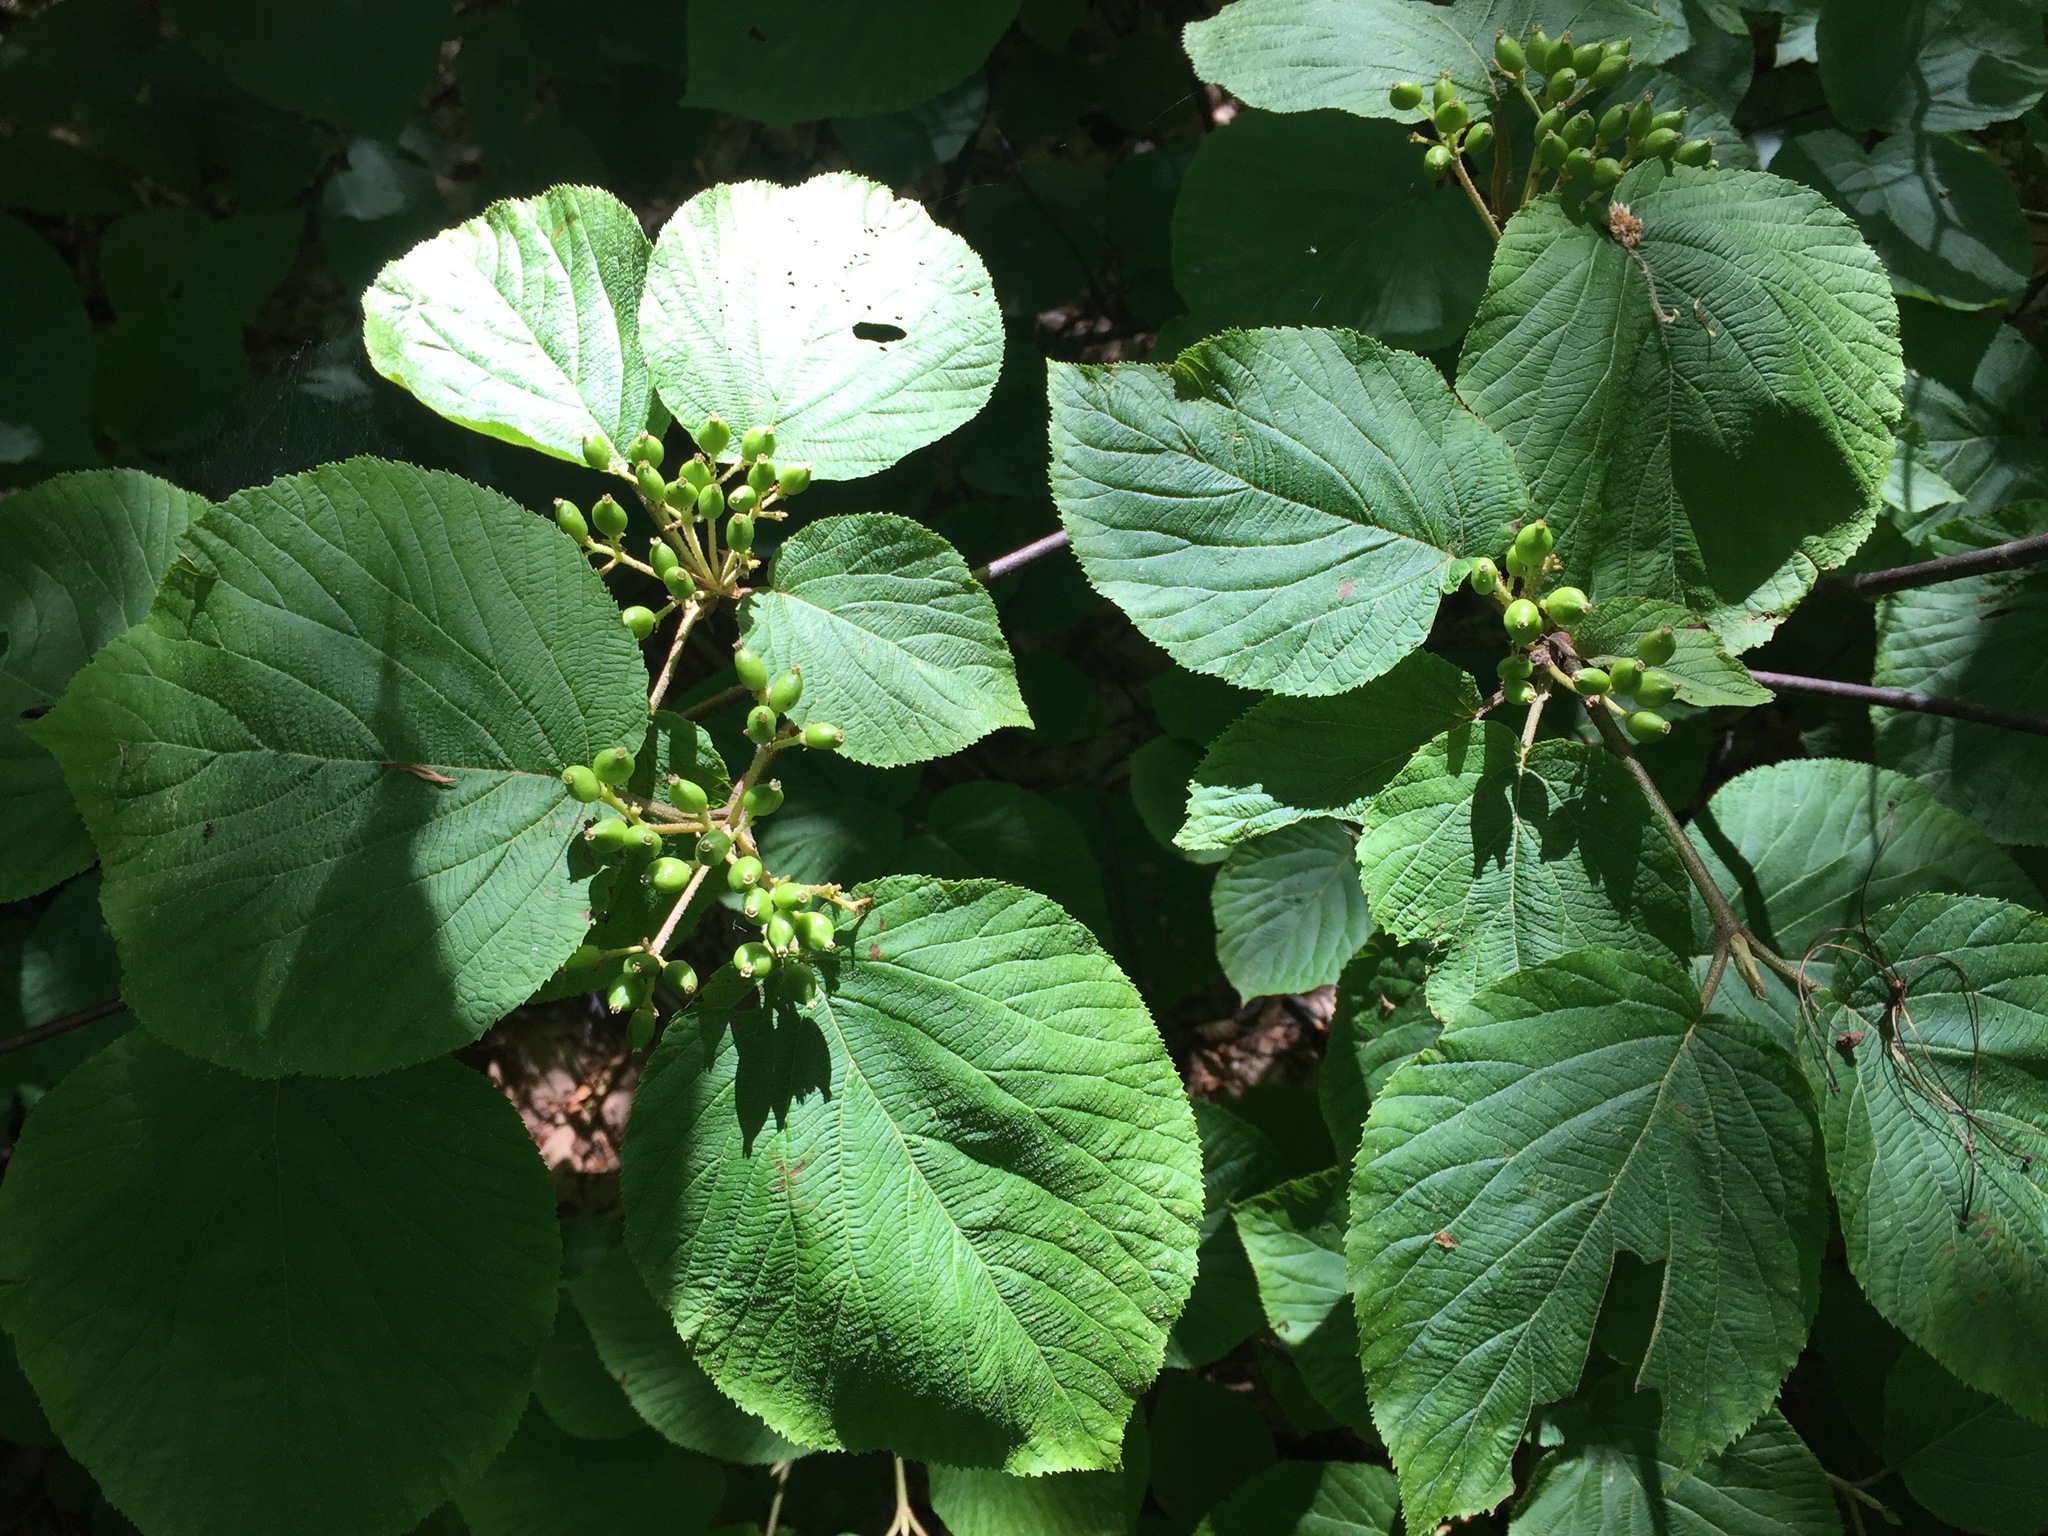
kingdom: Plantae
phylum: Tracheophyta
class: Magnoliopsida
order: Dipsacales
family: Viburnaceae
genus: Viburnum
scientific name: Viburnum lantanoides
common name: Hobblebush
